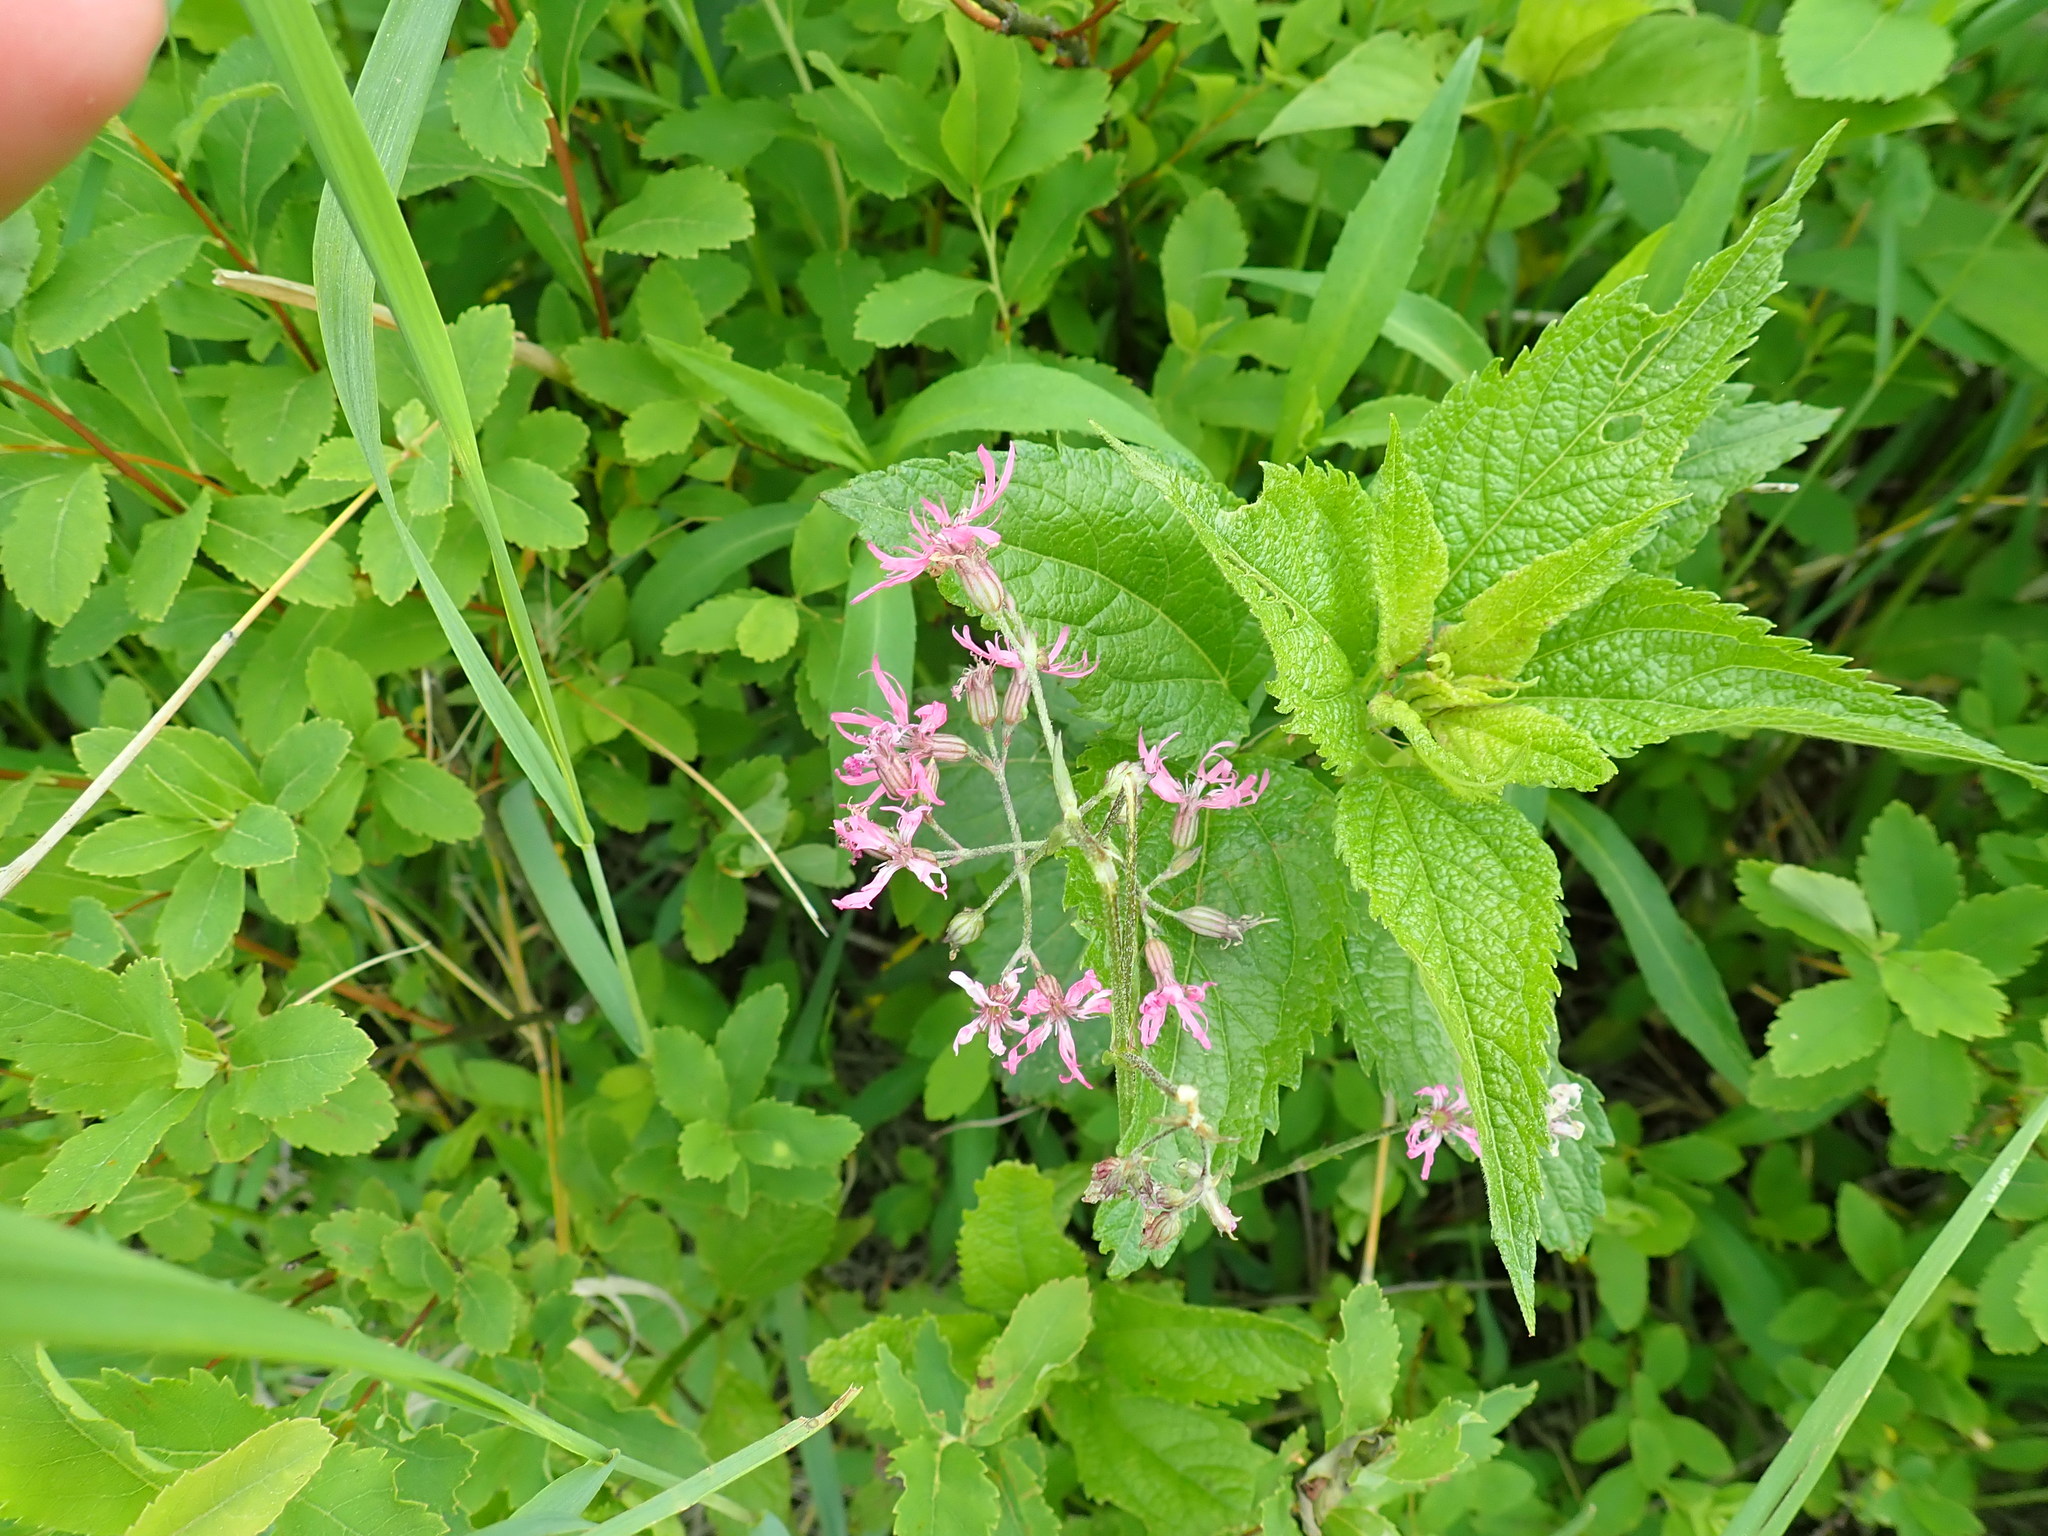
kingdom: Plantae
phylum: Tracheophyta
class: Magnoliopsida
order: Caryophyllales
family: Caryophyllaceae
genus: Silene
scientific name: Silene flos-cuculi
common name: Ragged-robin
